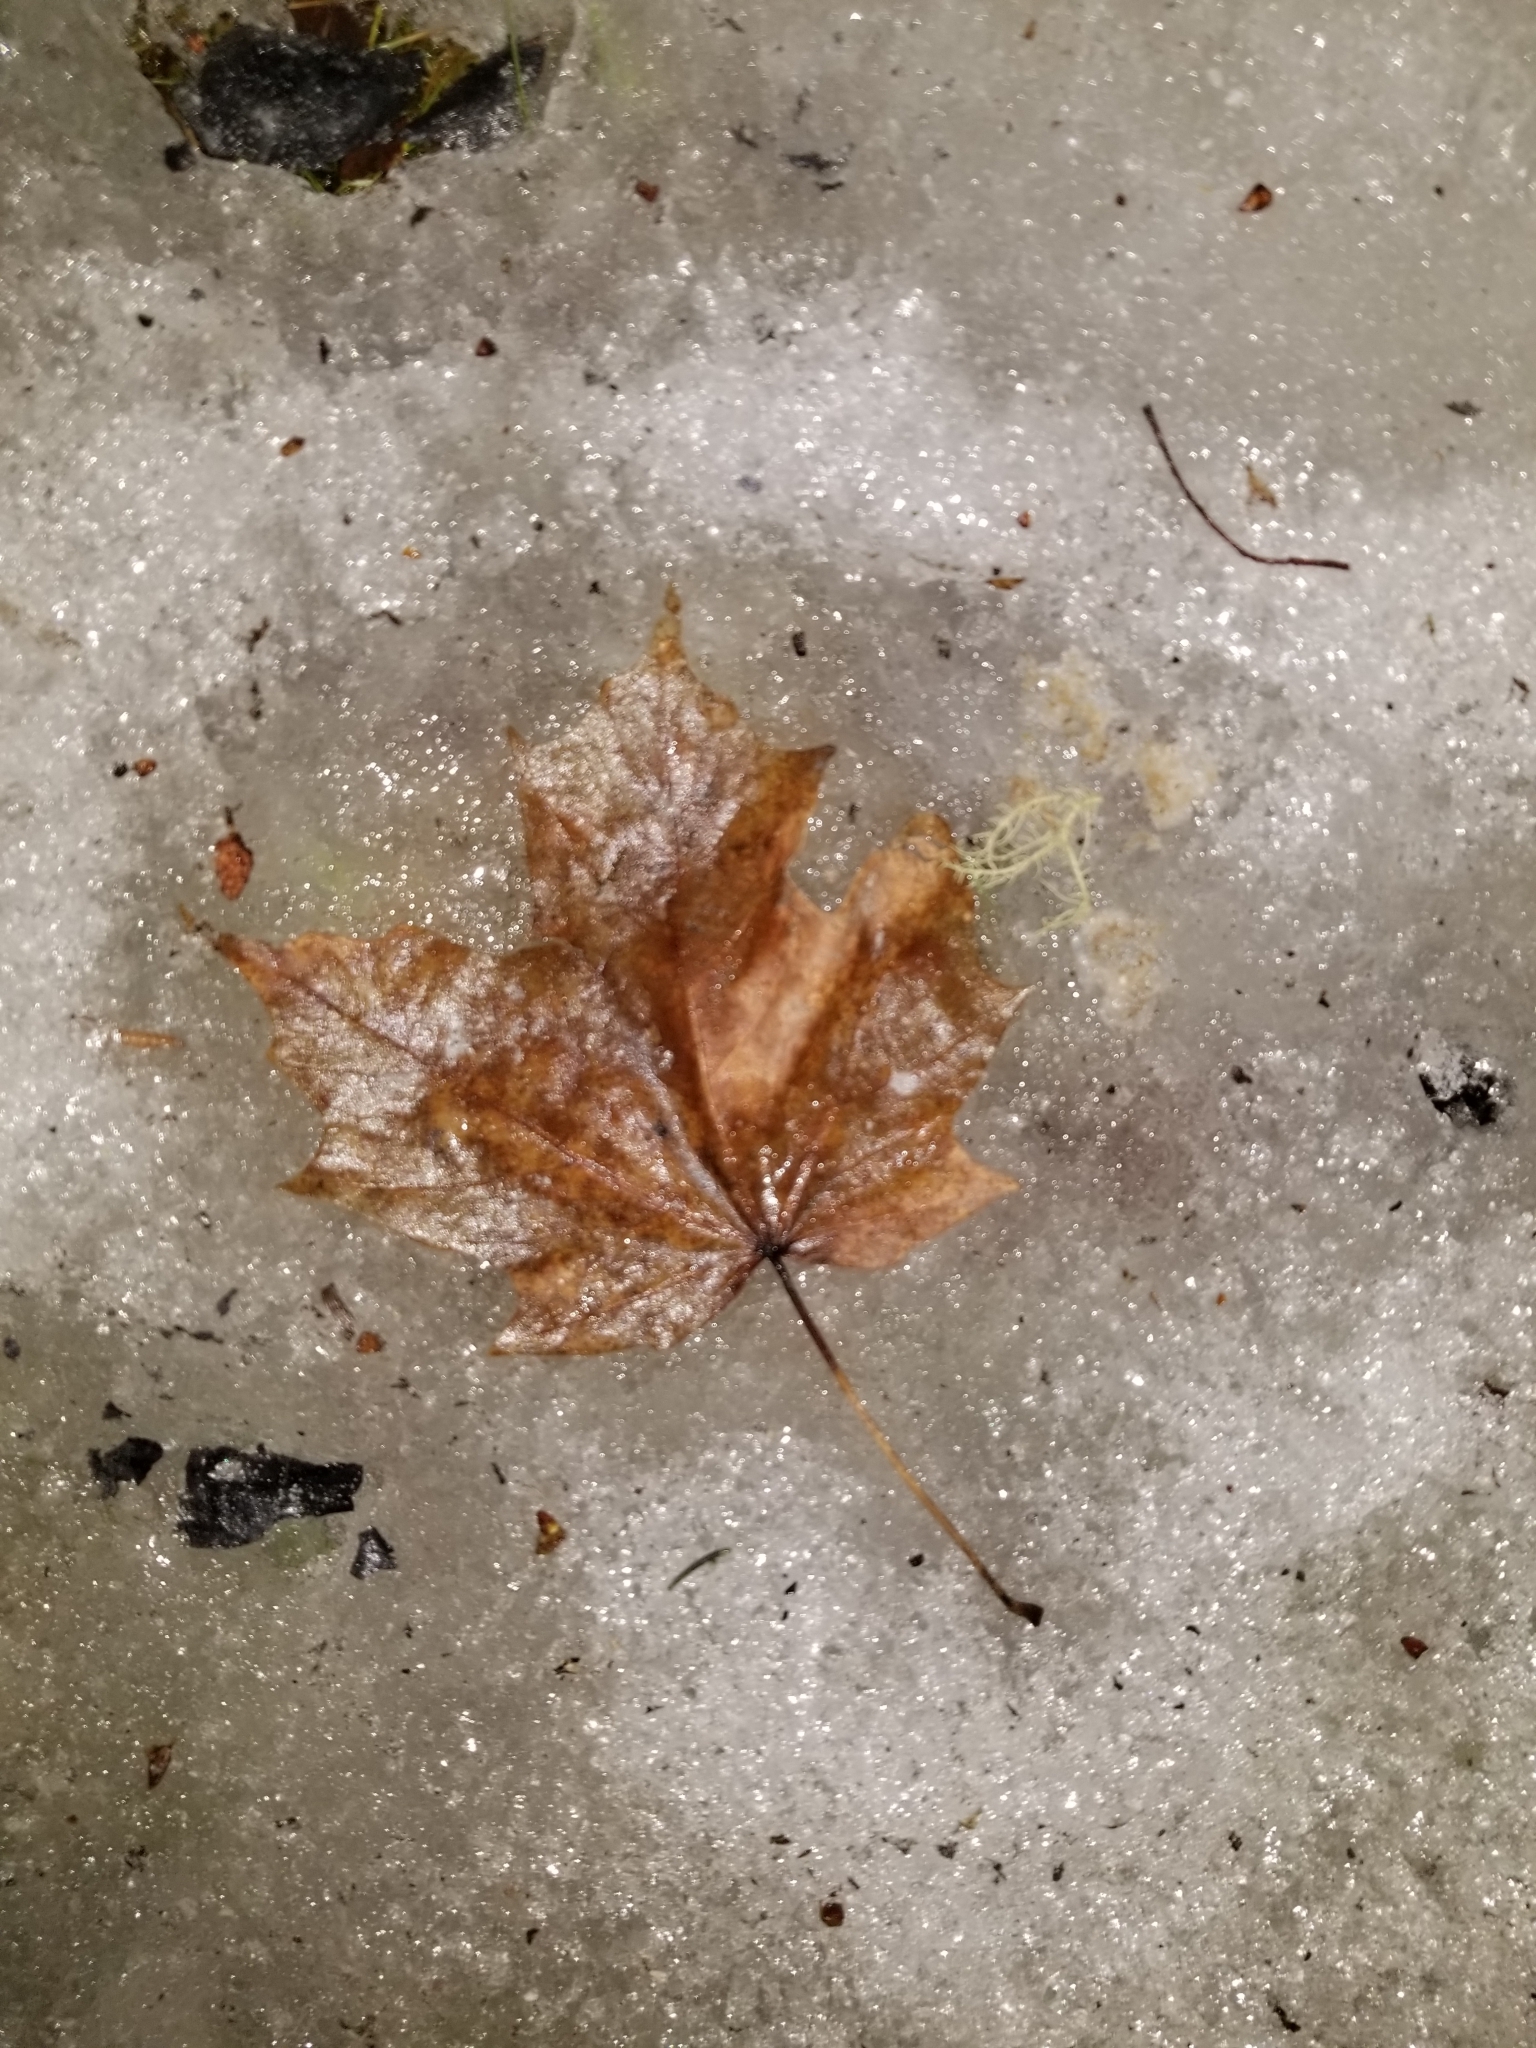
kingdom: Plantae
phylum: Tracheophyta
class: Magnoliopsida
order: Sapindales
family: Sapindaceae
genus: Acer
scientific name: Acer saccharum
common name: Sugar maple
